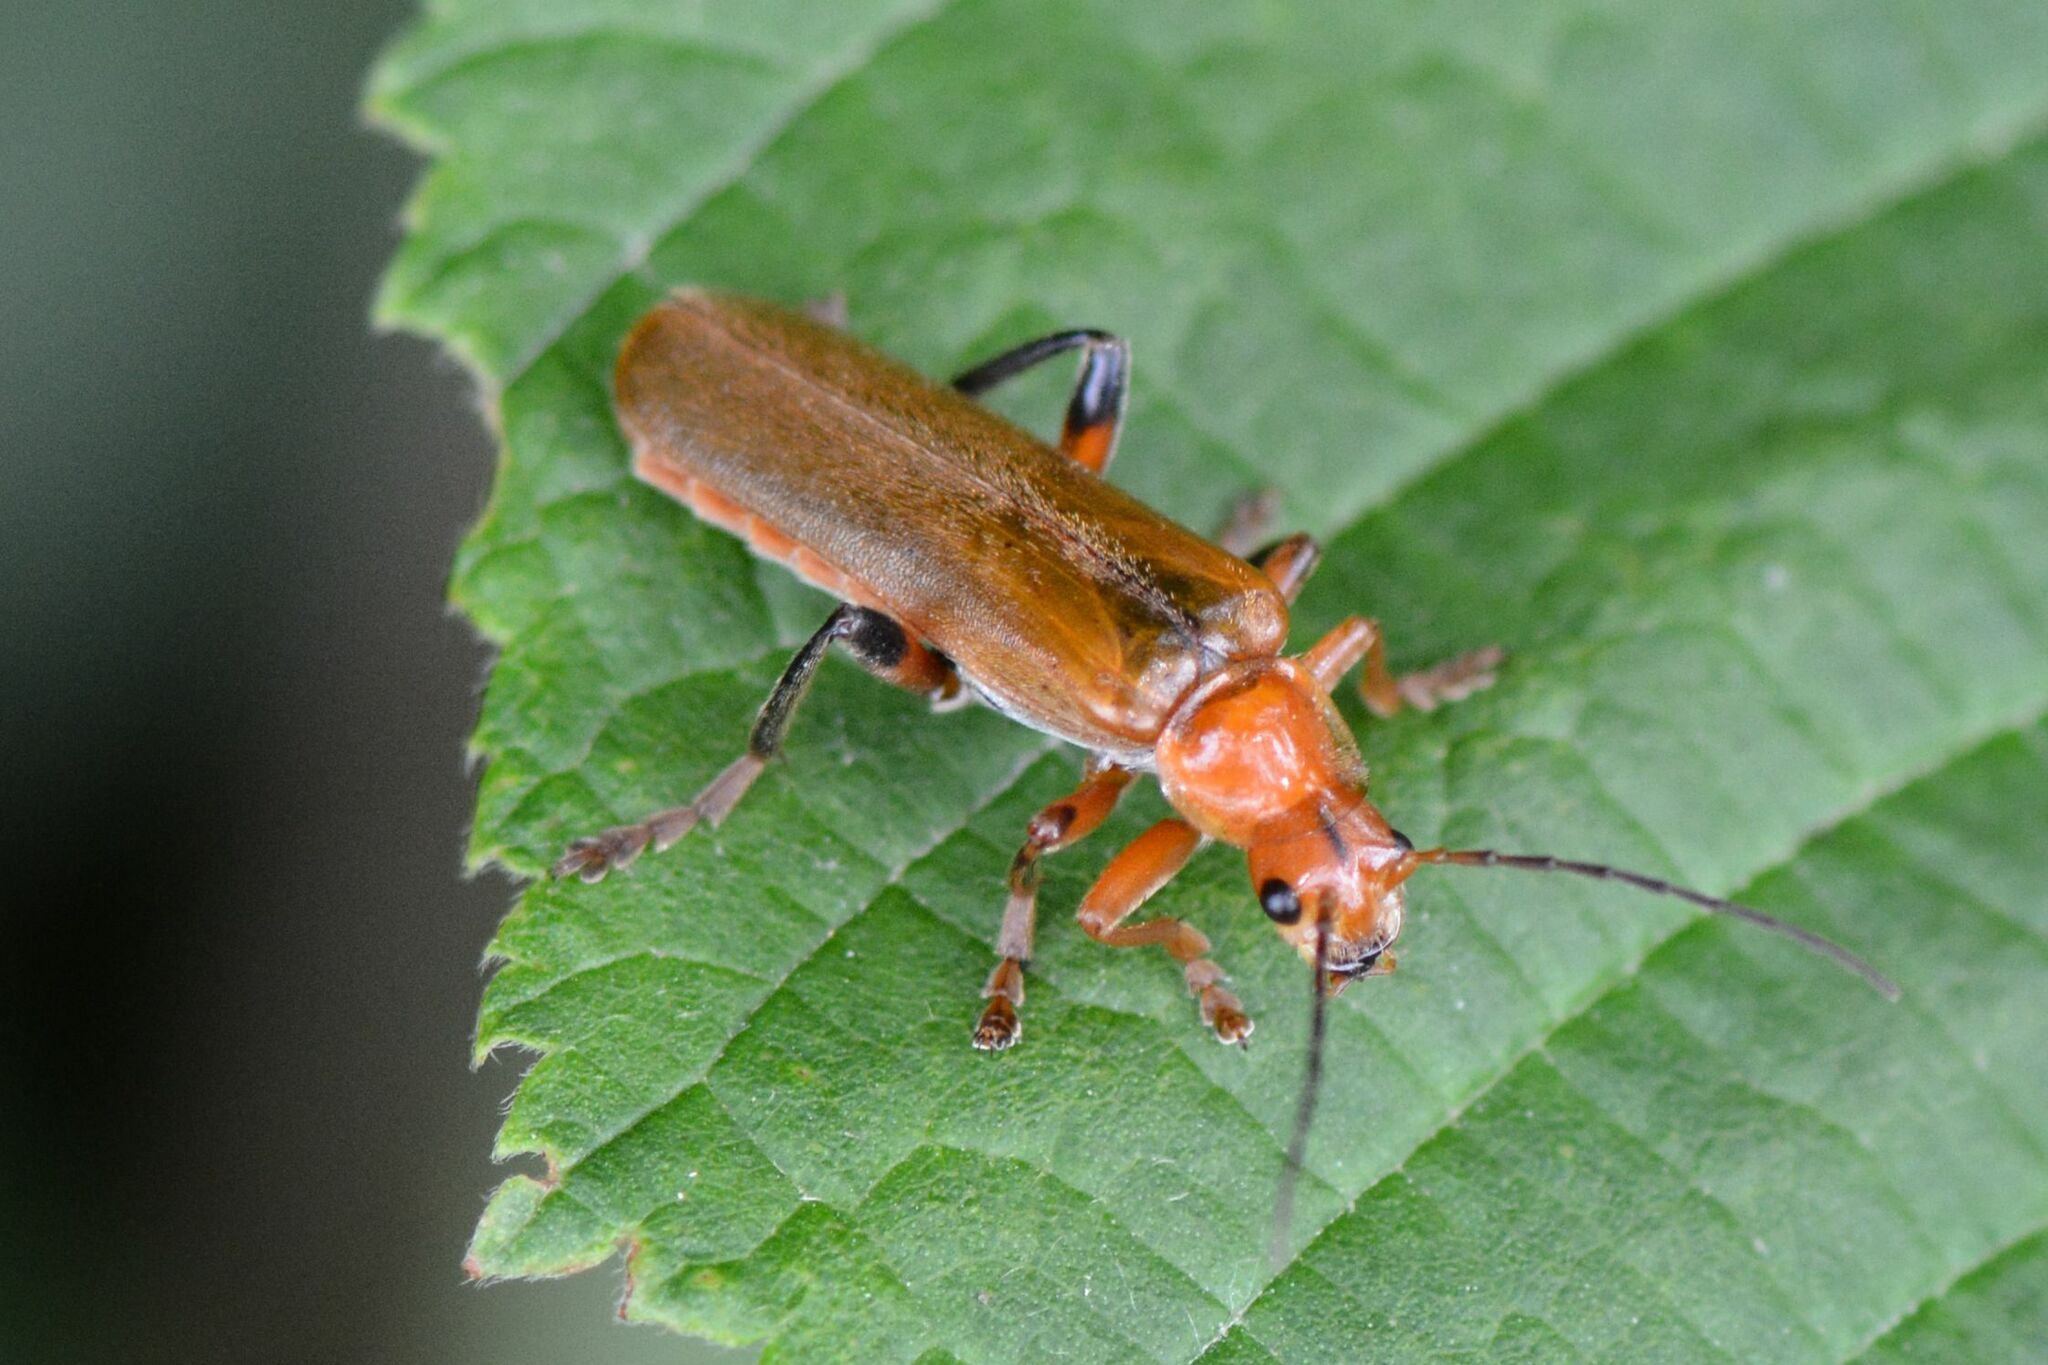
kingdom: Animalia
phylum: Arthropoda
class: Insecta
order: Coleoptera
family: Cantharidae
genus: Cantharis
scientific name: Cantharis livida
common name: Livid soldier beetle
